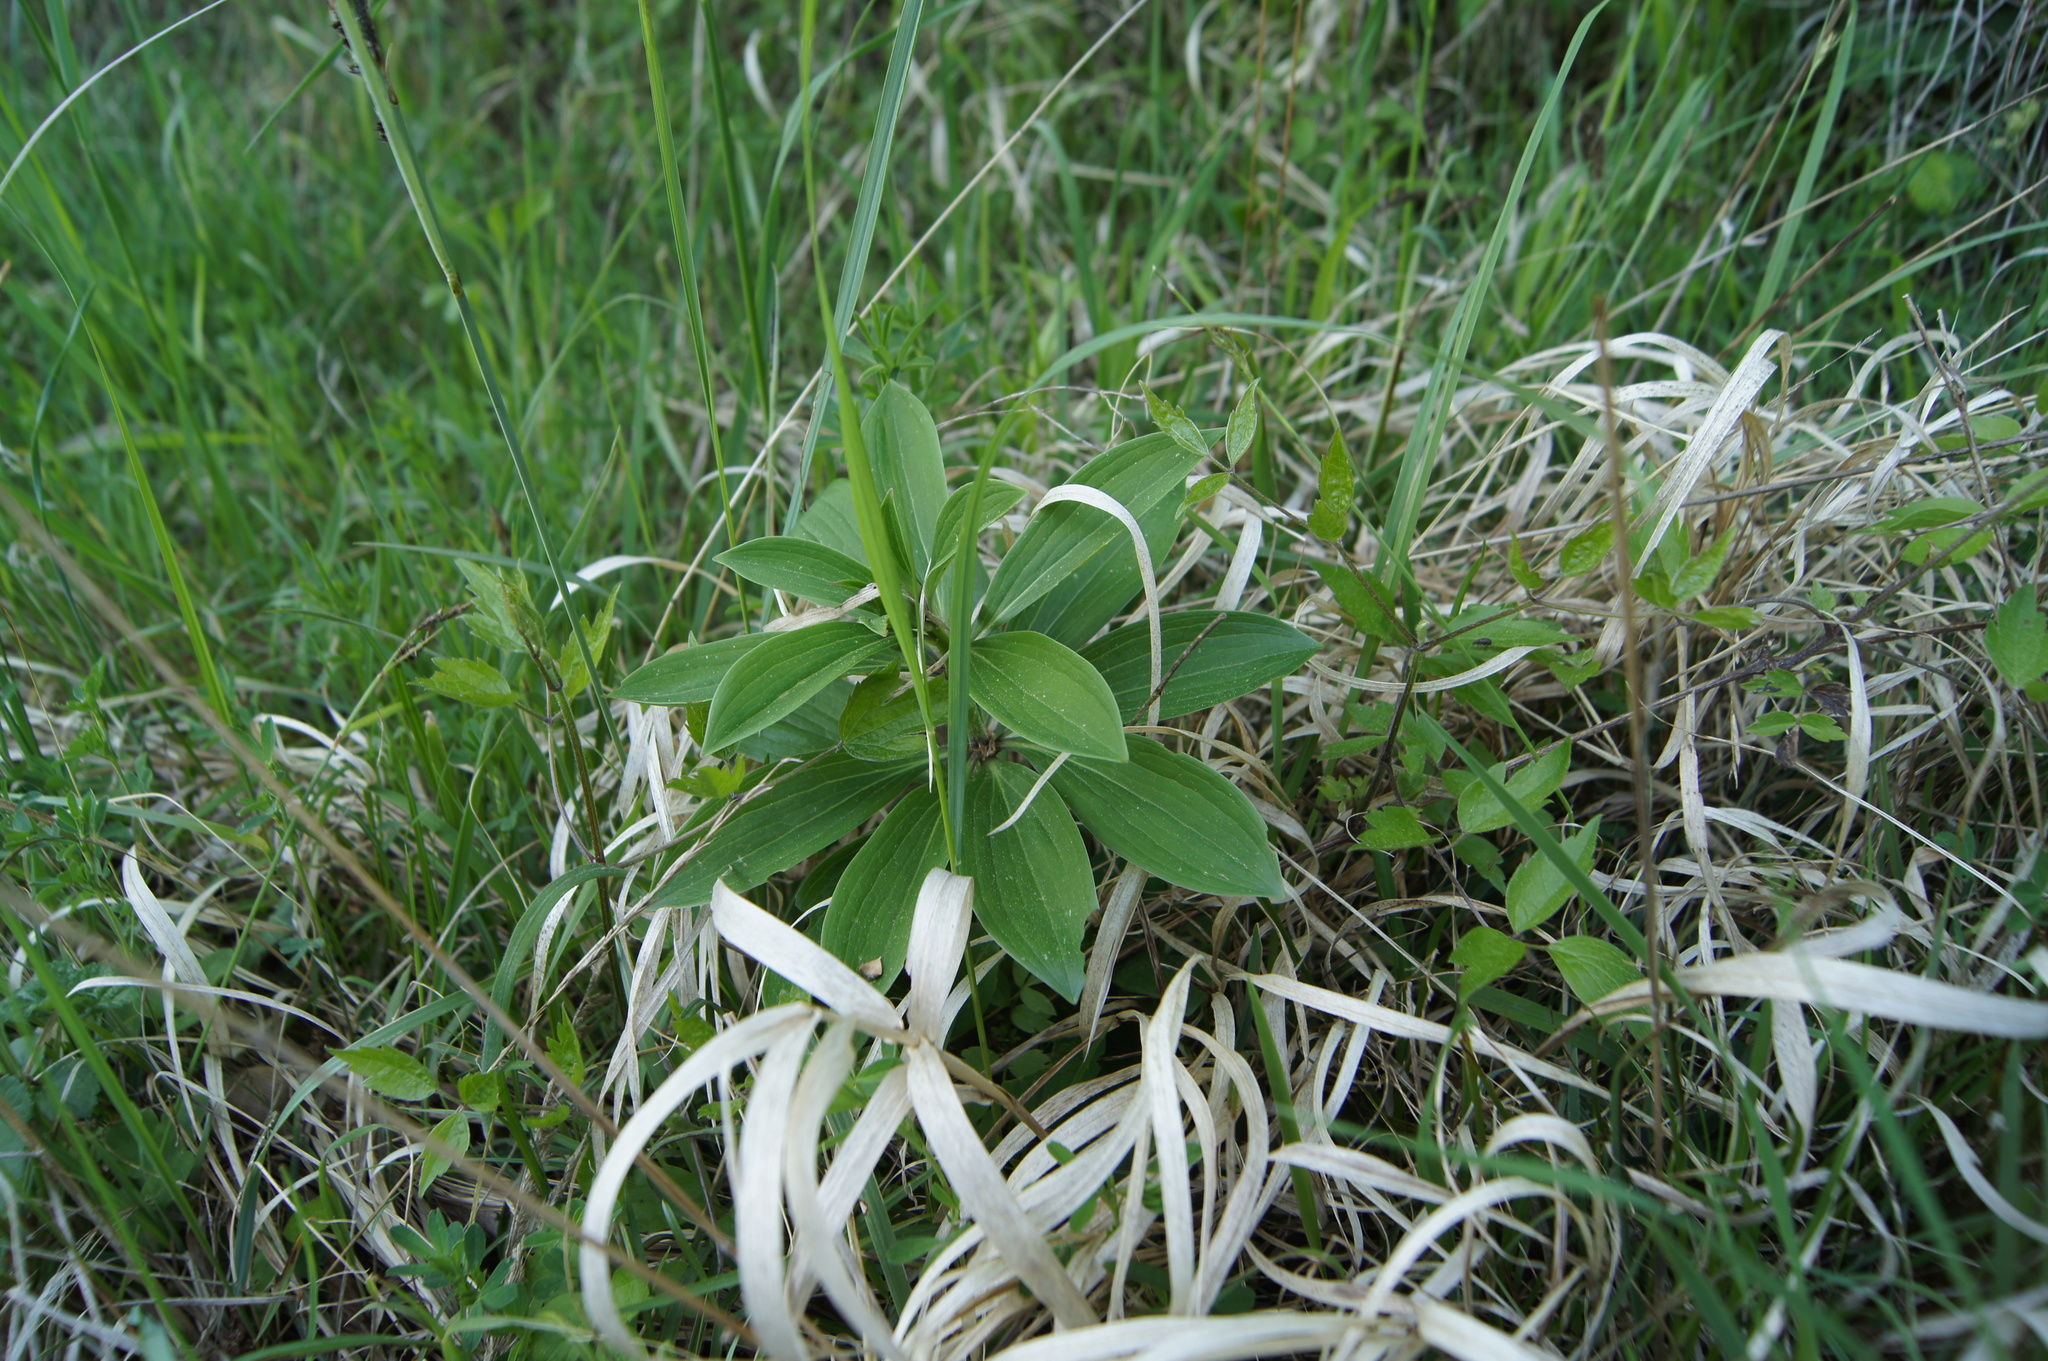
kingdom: Plantae
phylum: Tracheophyta
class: Liliopsida
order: Liliales
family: Liliaceae
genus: Lilium
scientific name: Lilium martagon
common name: Martagon lily
